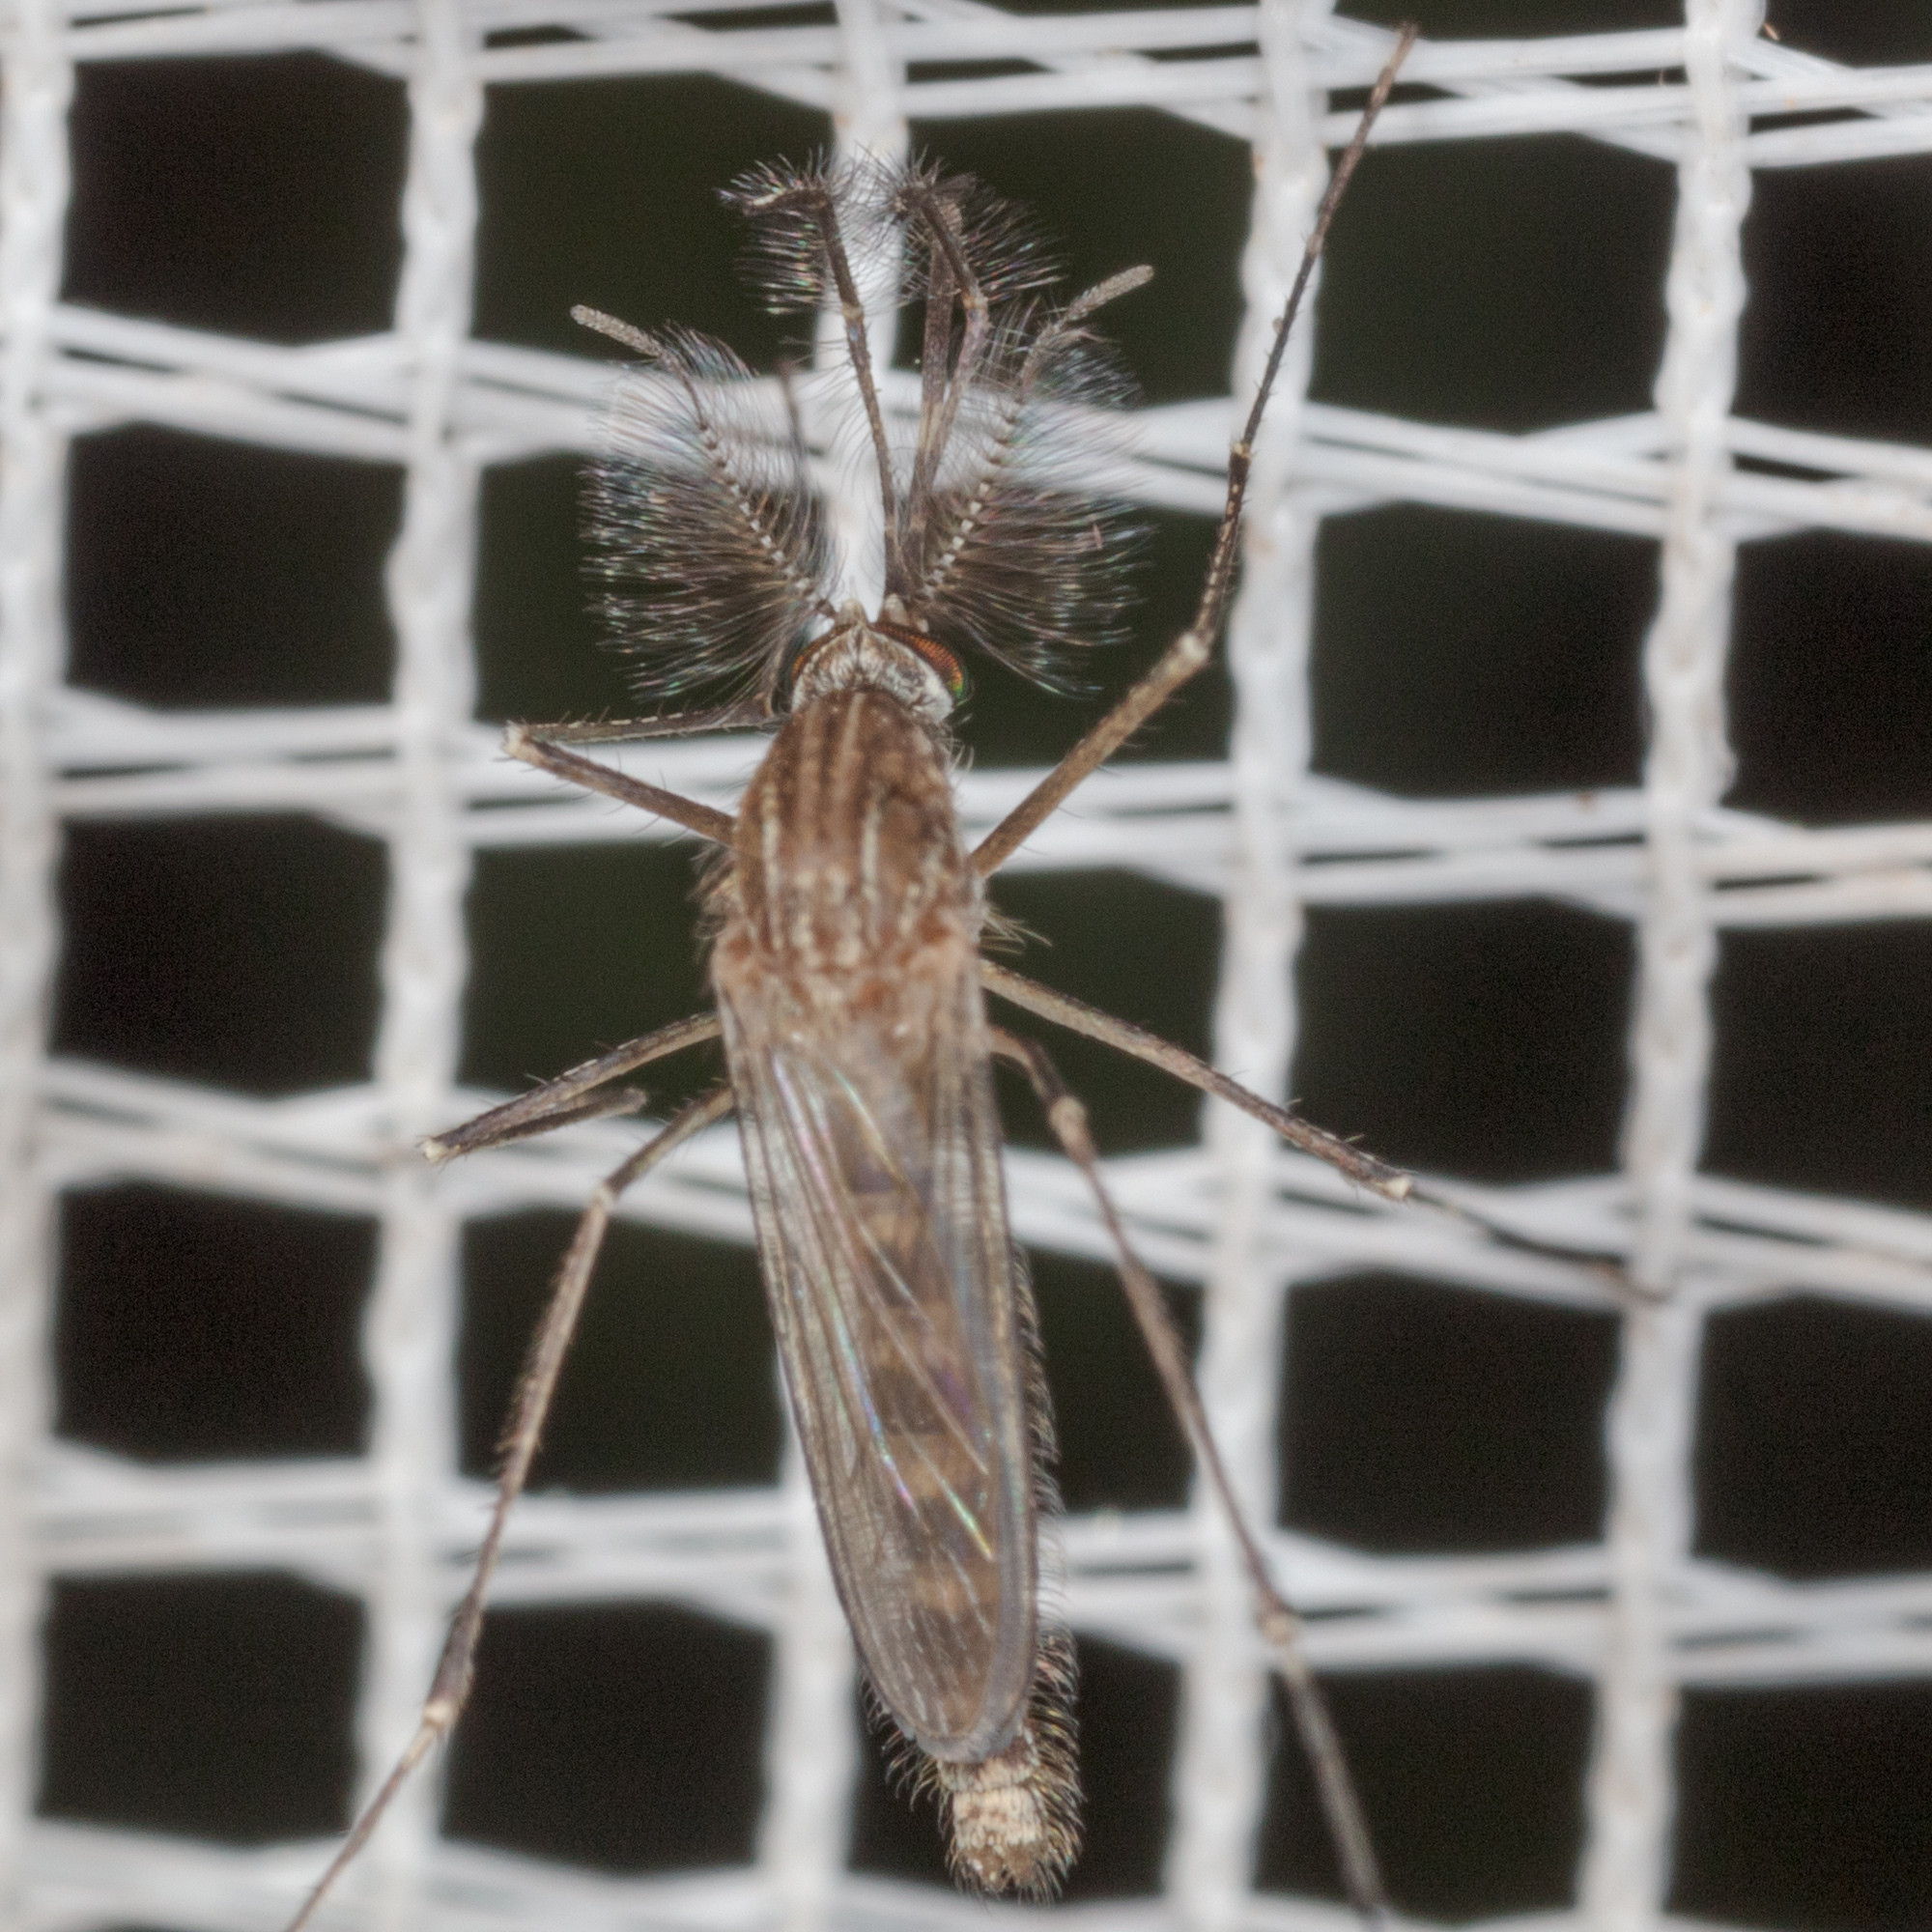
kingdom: Animalia
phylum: Arthropoda
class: Insecta
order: Diptera
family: Culicidae
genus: Culex
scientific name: Culex tarsalis
